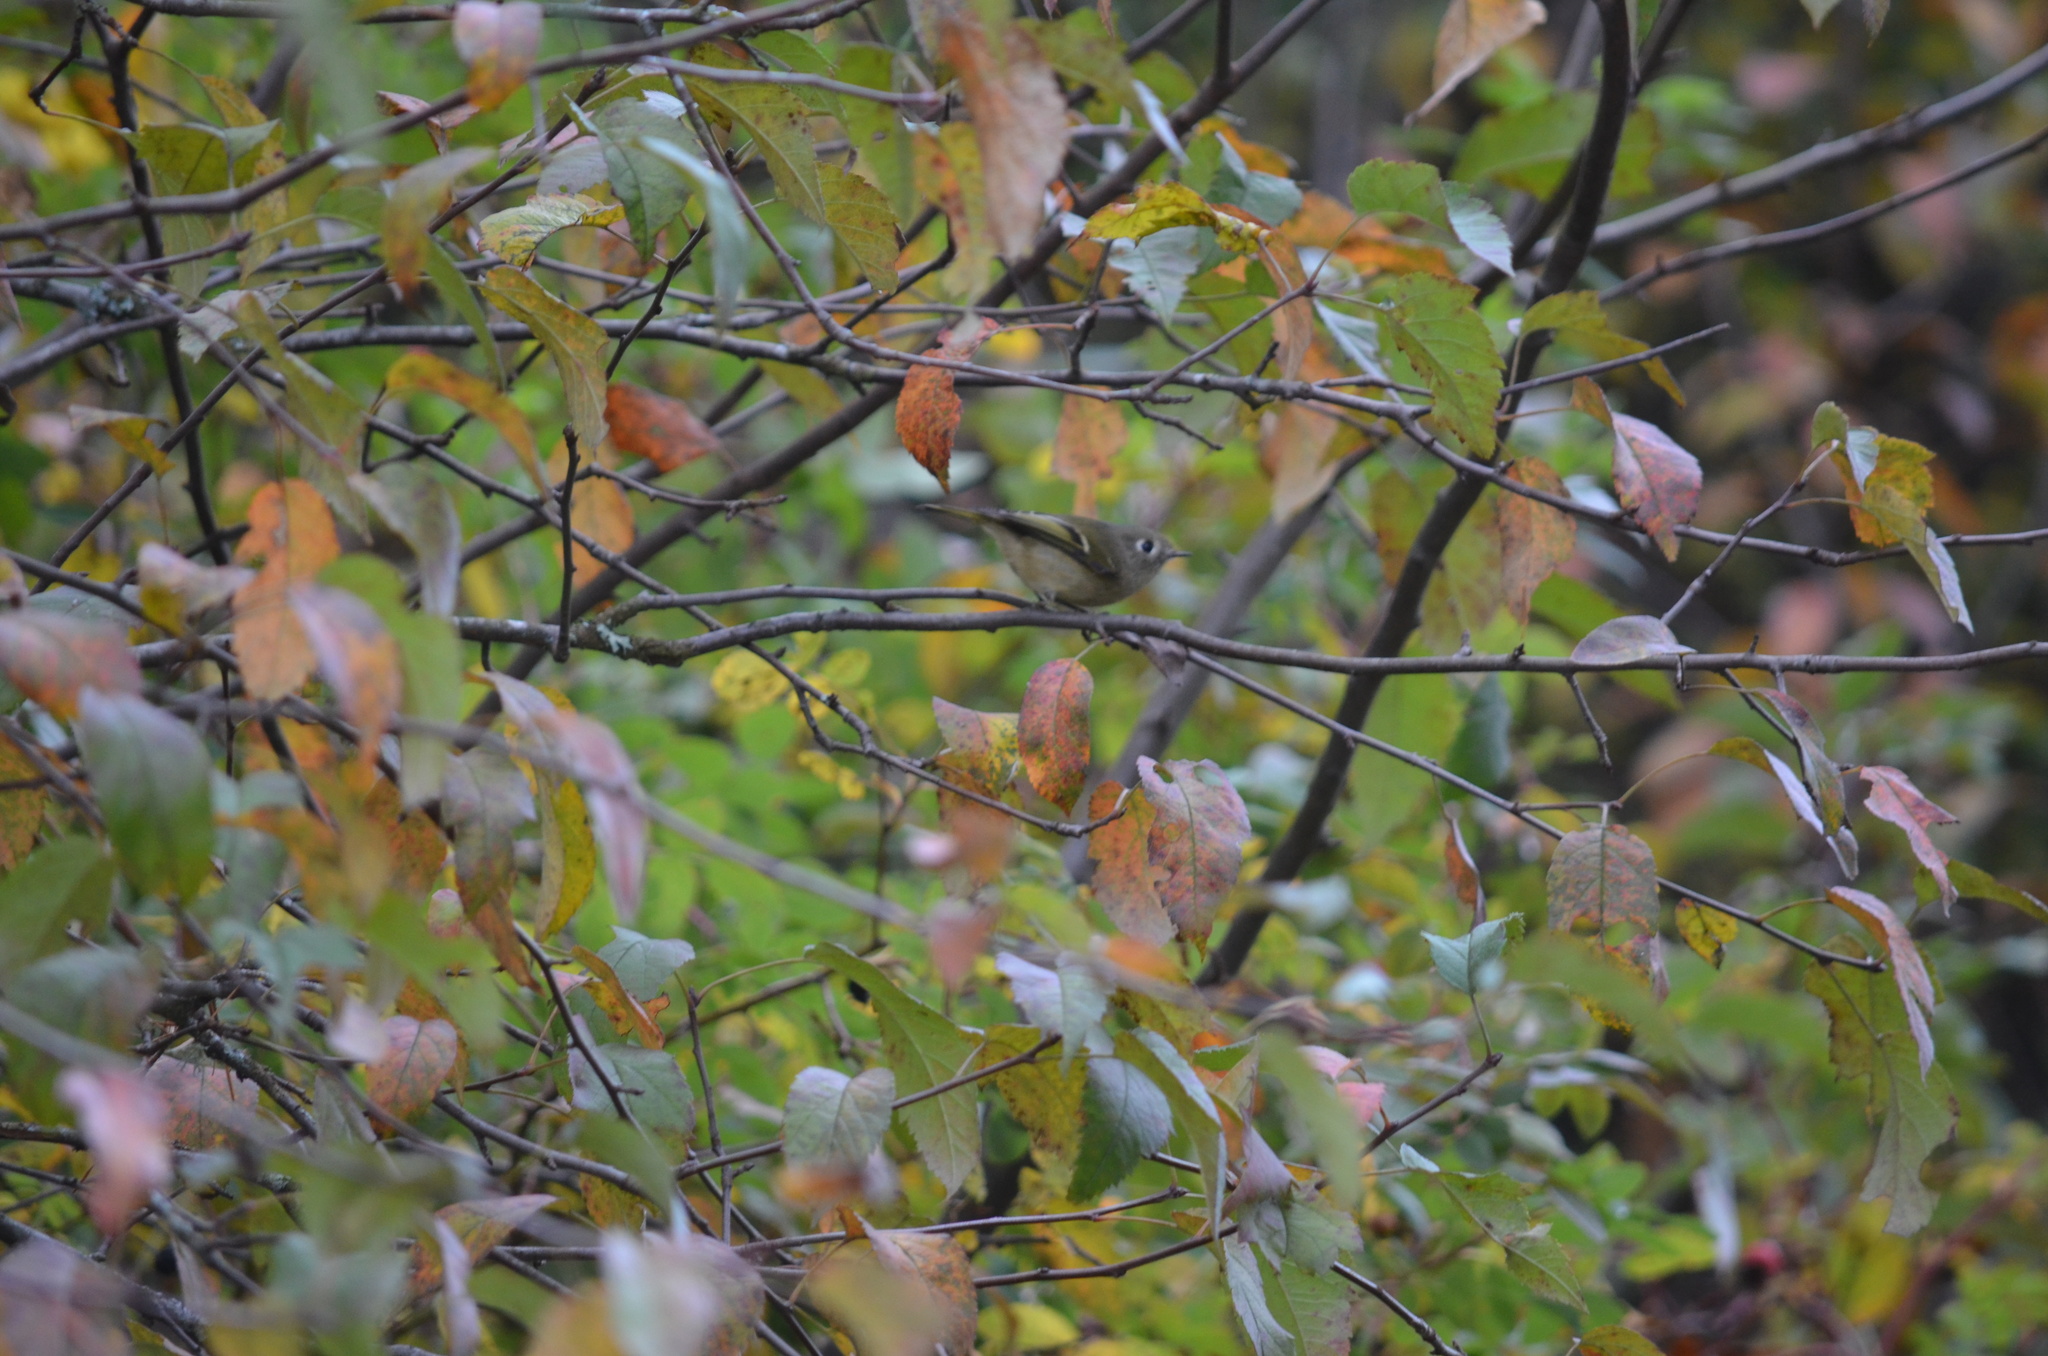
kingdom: Animalia
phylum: Chordata
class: Aves
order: Passeriformes
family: Regulidae
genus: Regulus
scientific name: Regulus calendula
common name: Ruby-crowned kinglet
